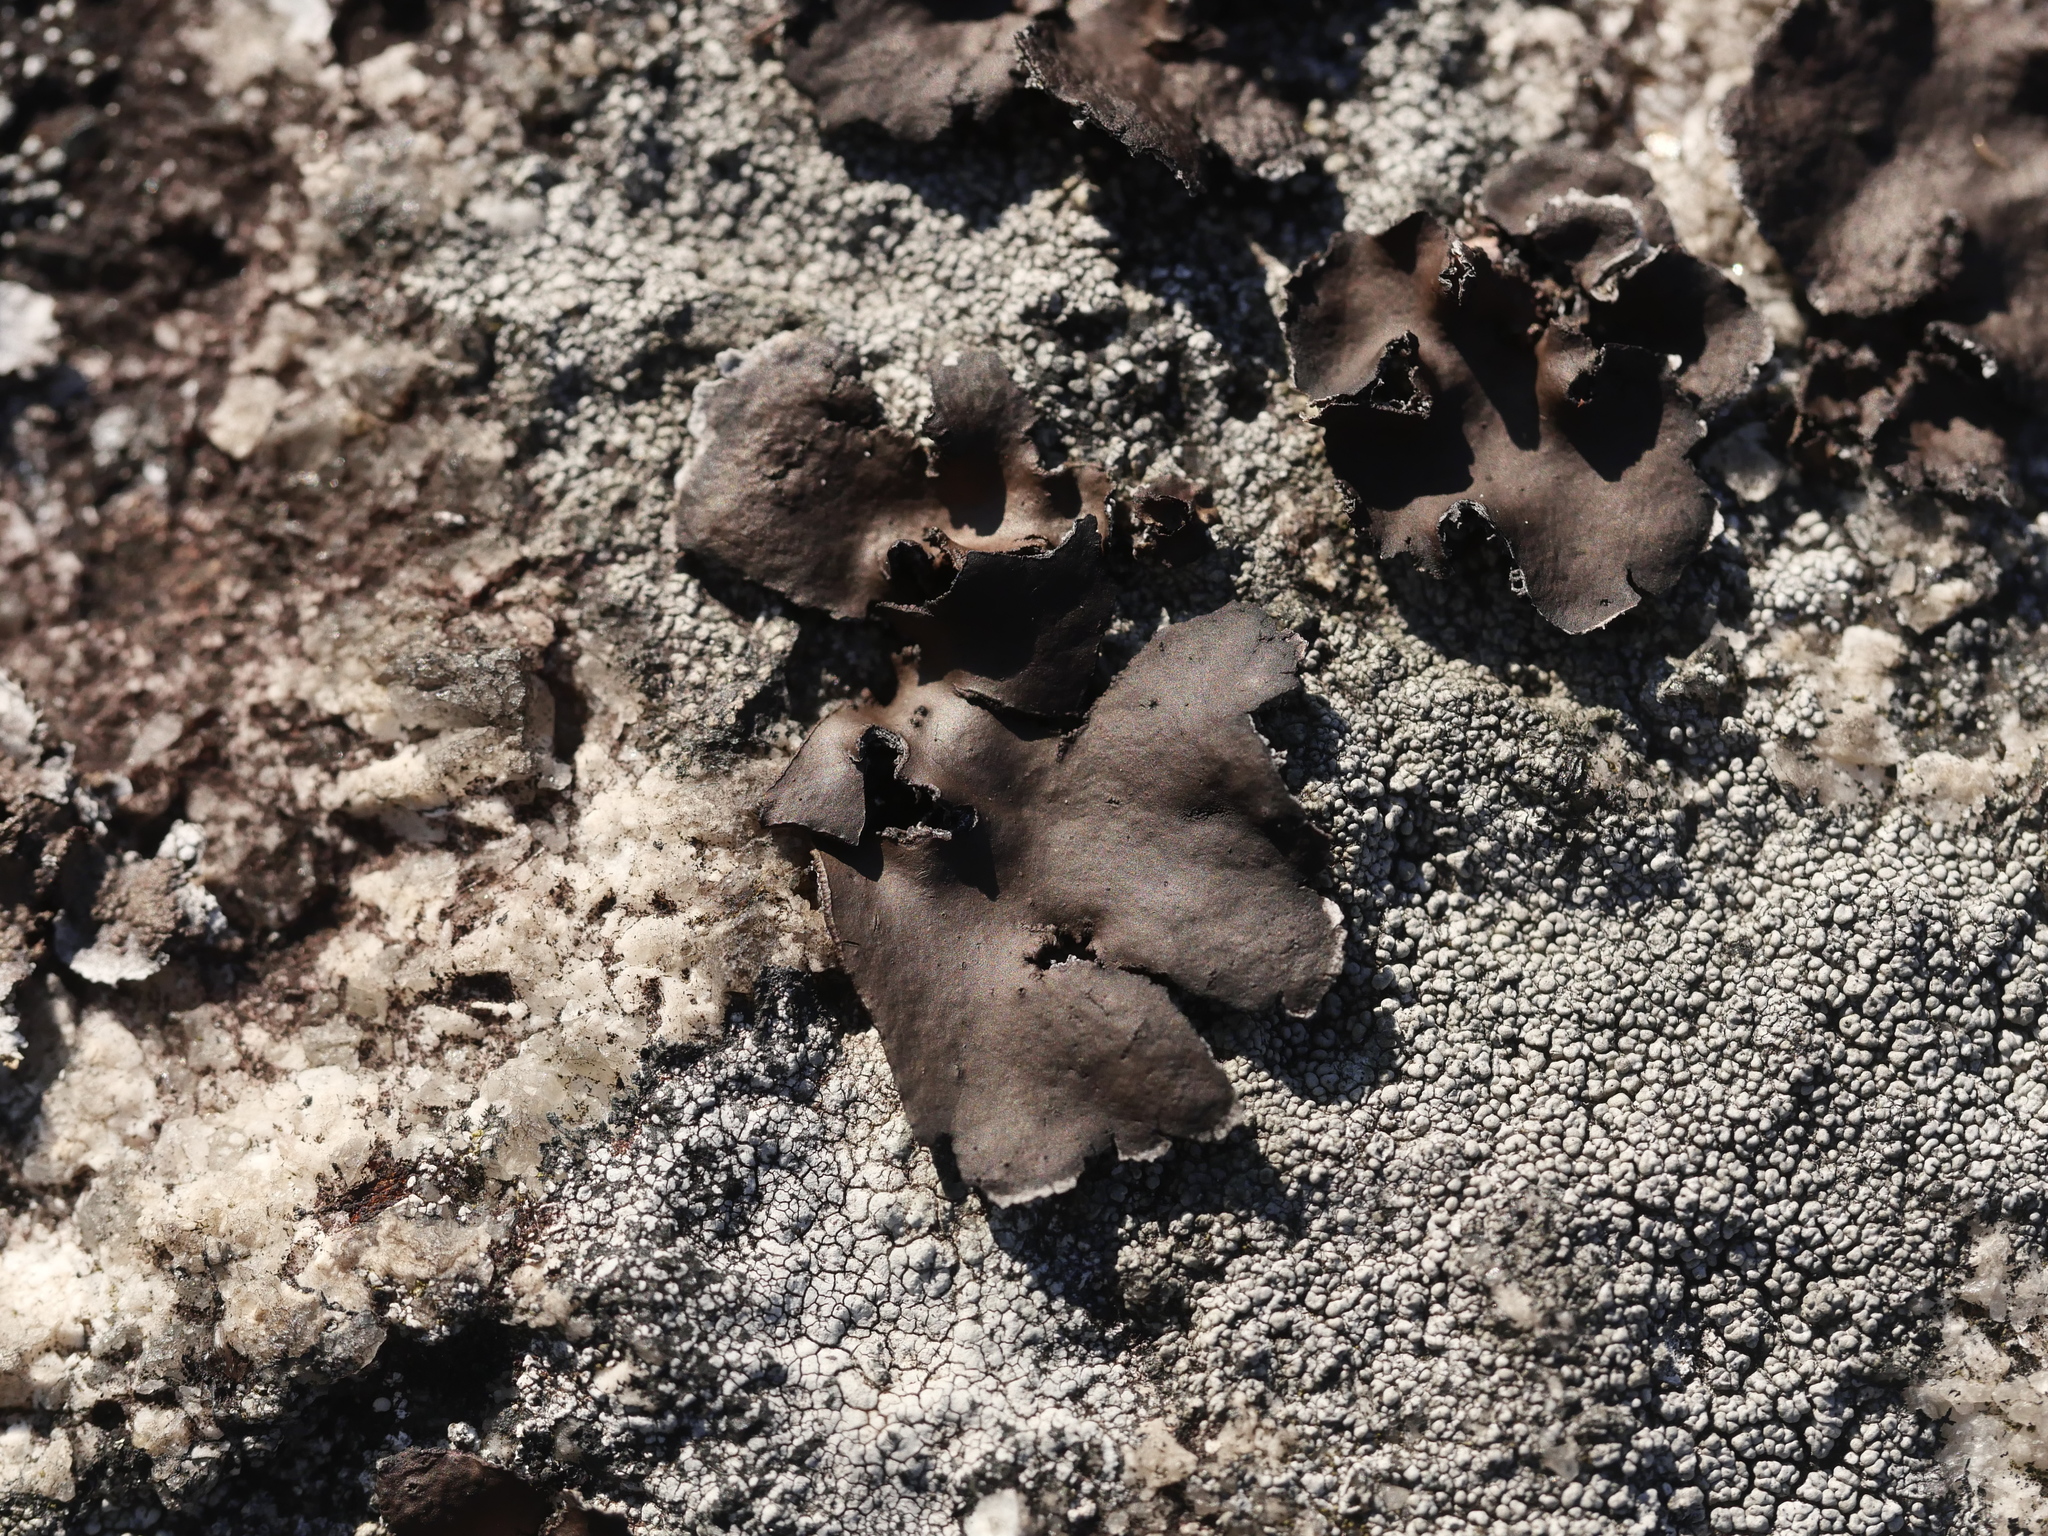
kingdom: Fungi
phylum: Ascomycota
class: Lecanoromycetes
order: Umbilicariales
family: Umbilicariaceae
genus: Umbilicaria
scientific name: Umbilicaria muhlenbergii
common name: Lesser rocktripe
